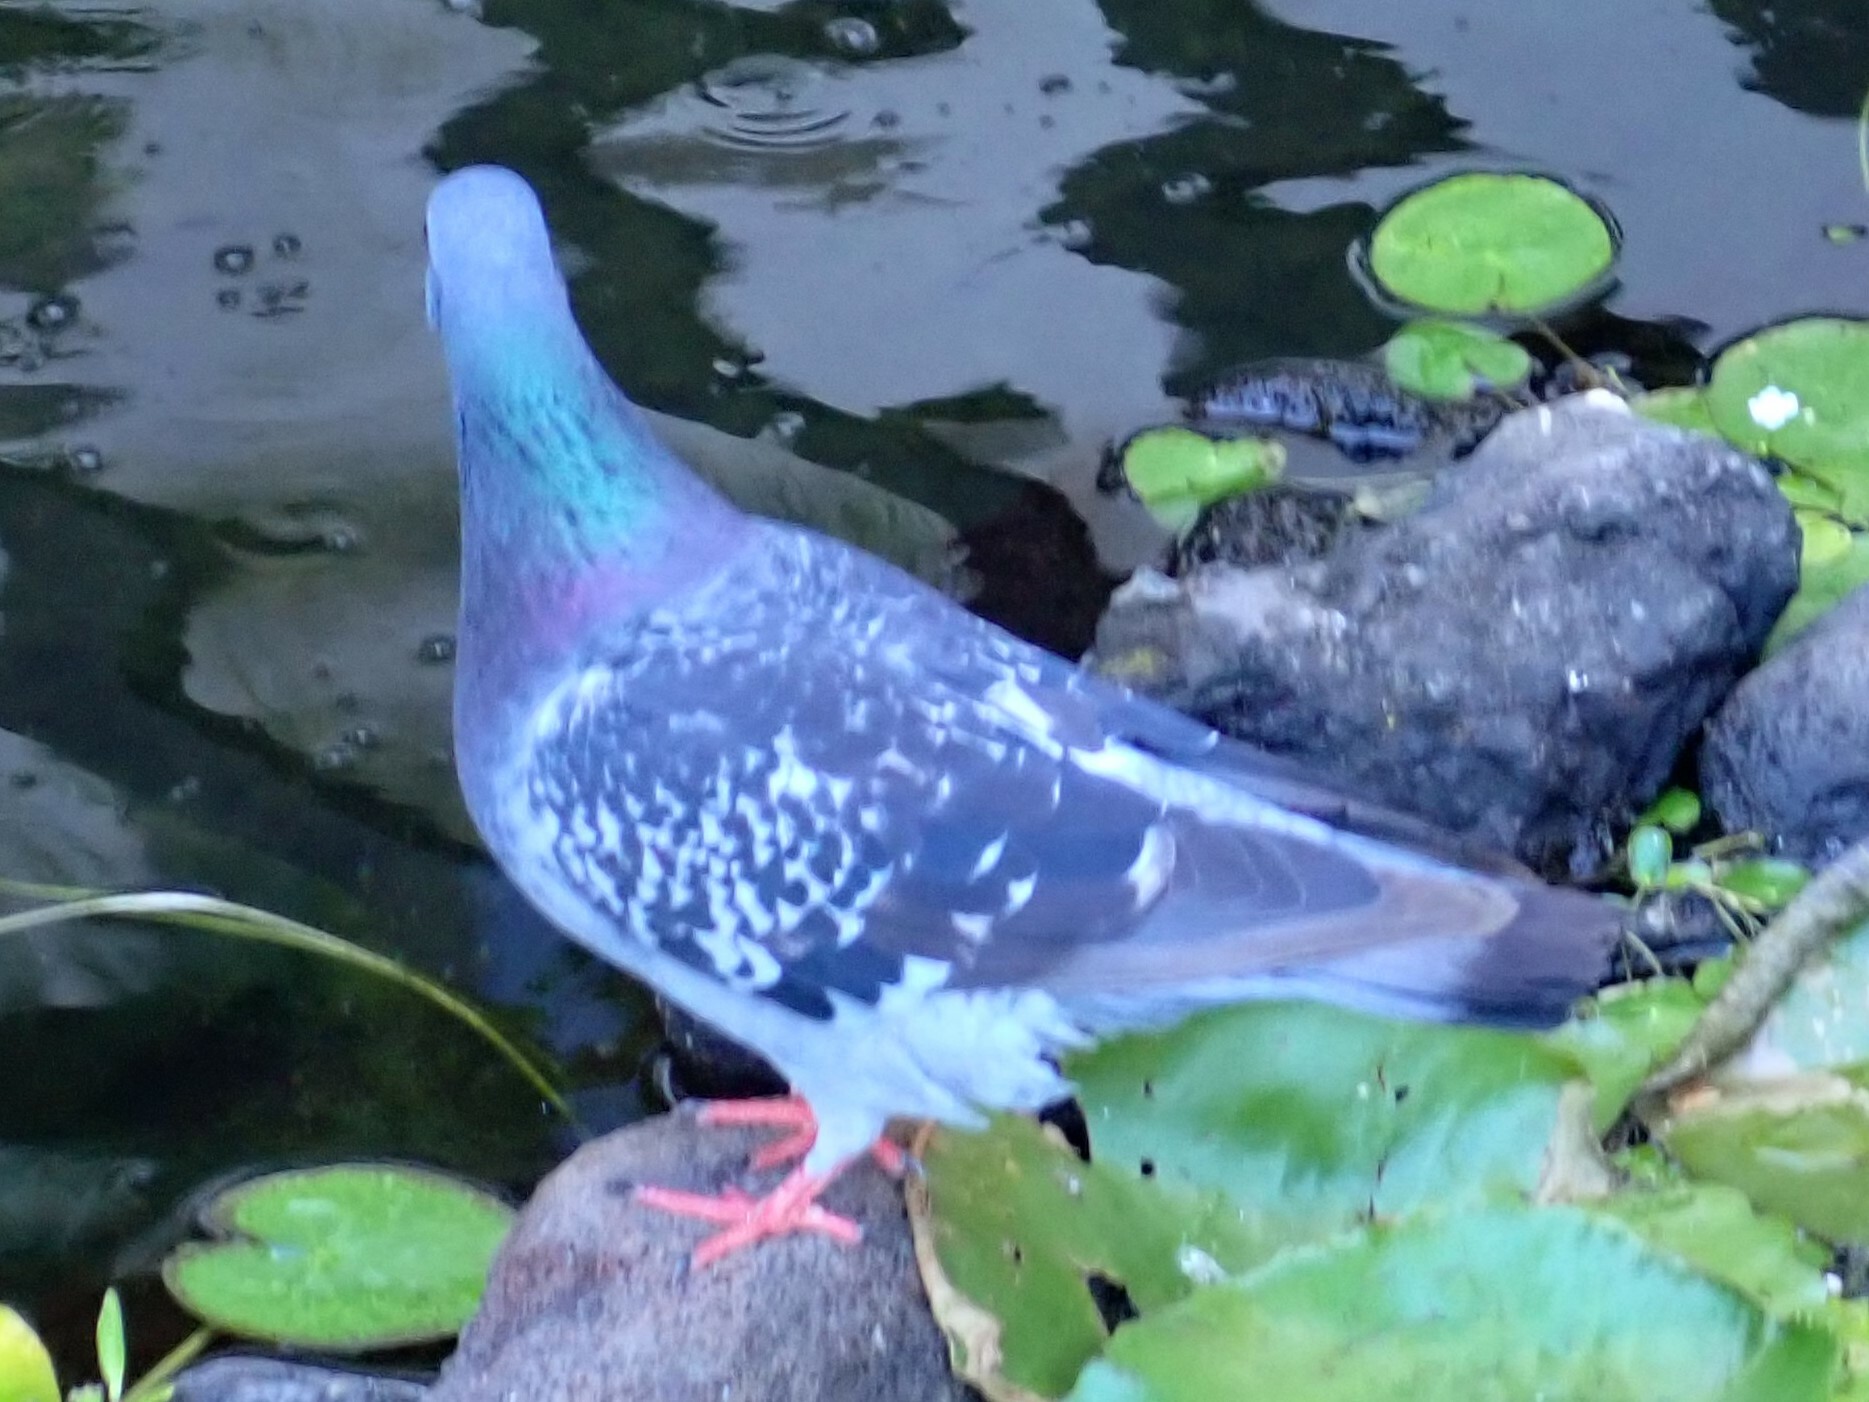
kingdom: Animalia
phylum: Chordata
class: Aves
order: Columbiformes
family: Columbidae
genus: Columba
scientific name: Columba livia
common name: Rock pigeon
